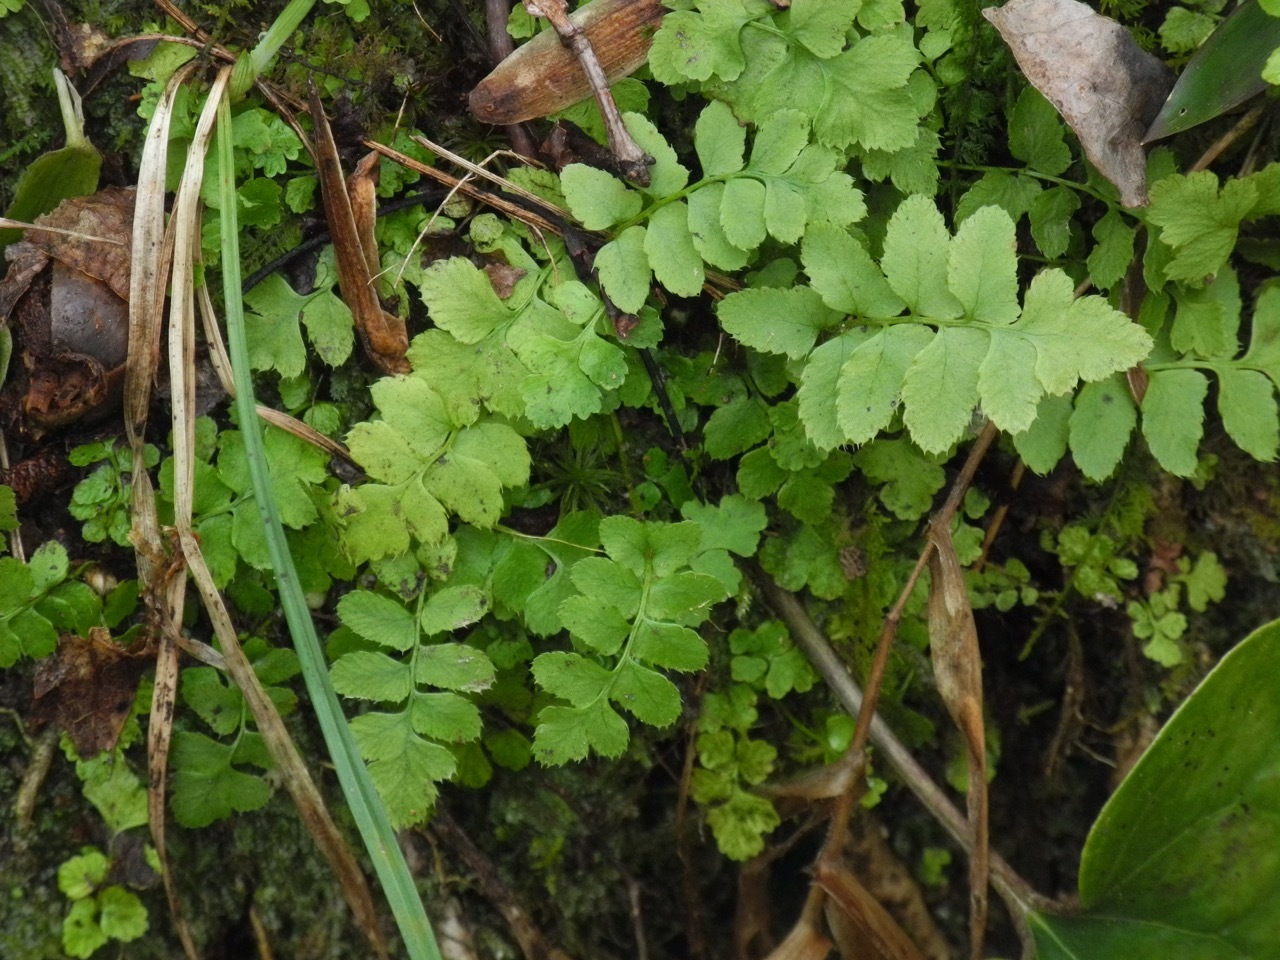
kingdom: Plantae
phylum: Tracheophyta
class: Polypodiopsida
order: Polypodiales
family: Dryopteridaceae
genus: Polystichum
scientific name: Polystichum acrostichoides
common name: Christmas fern
